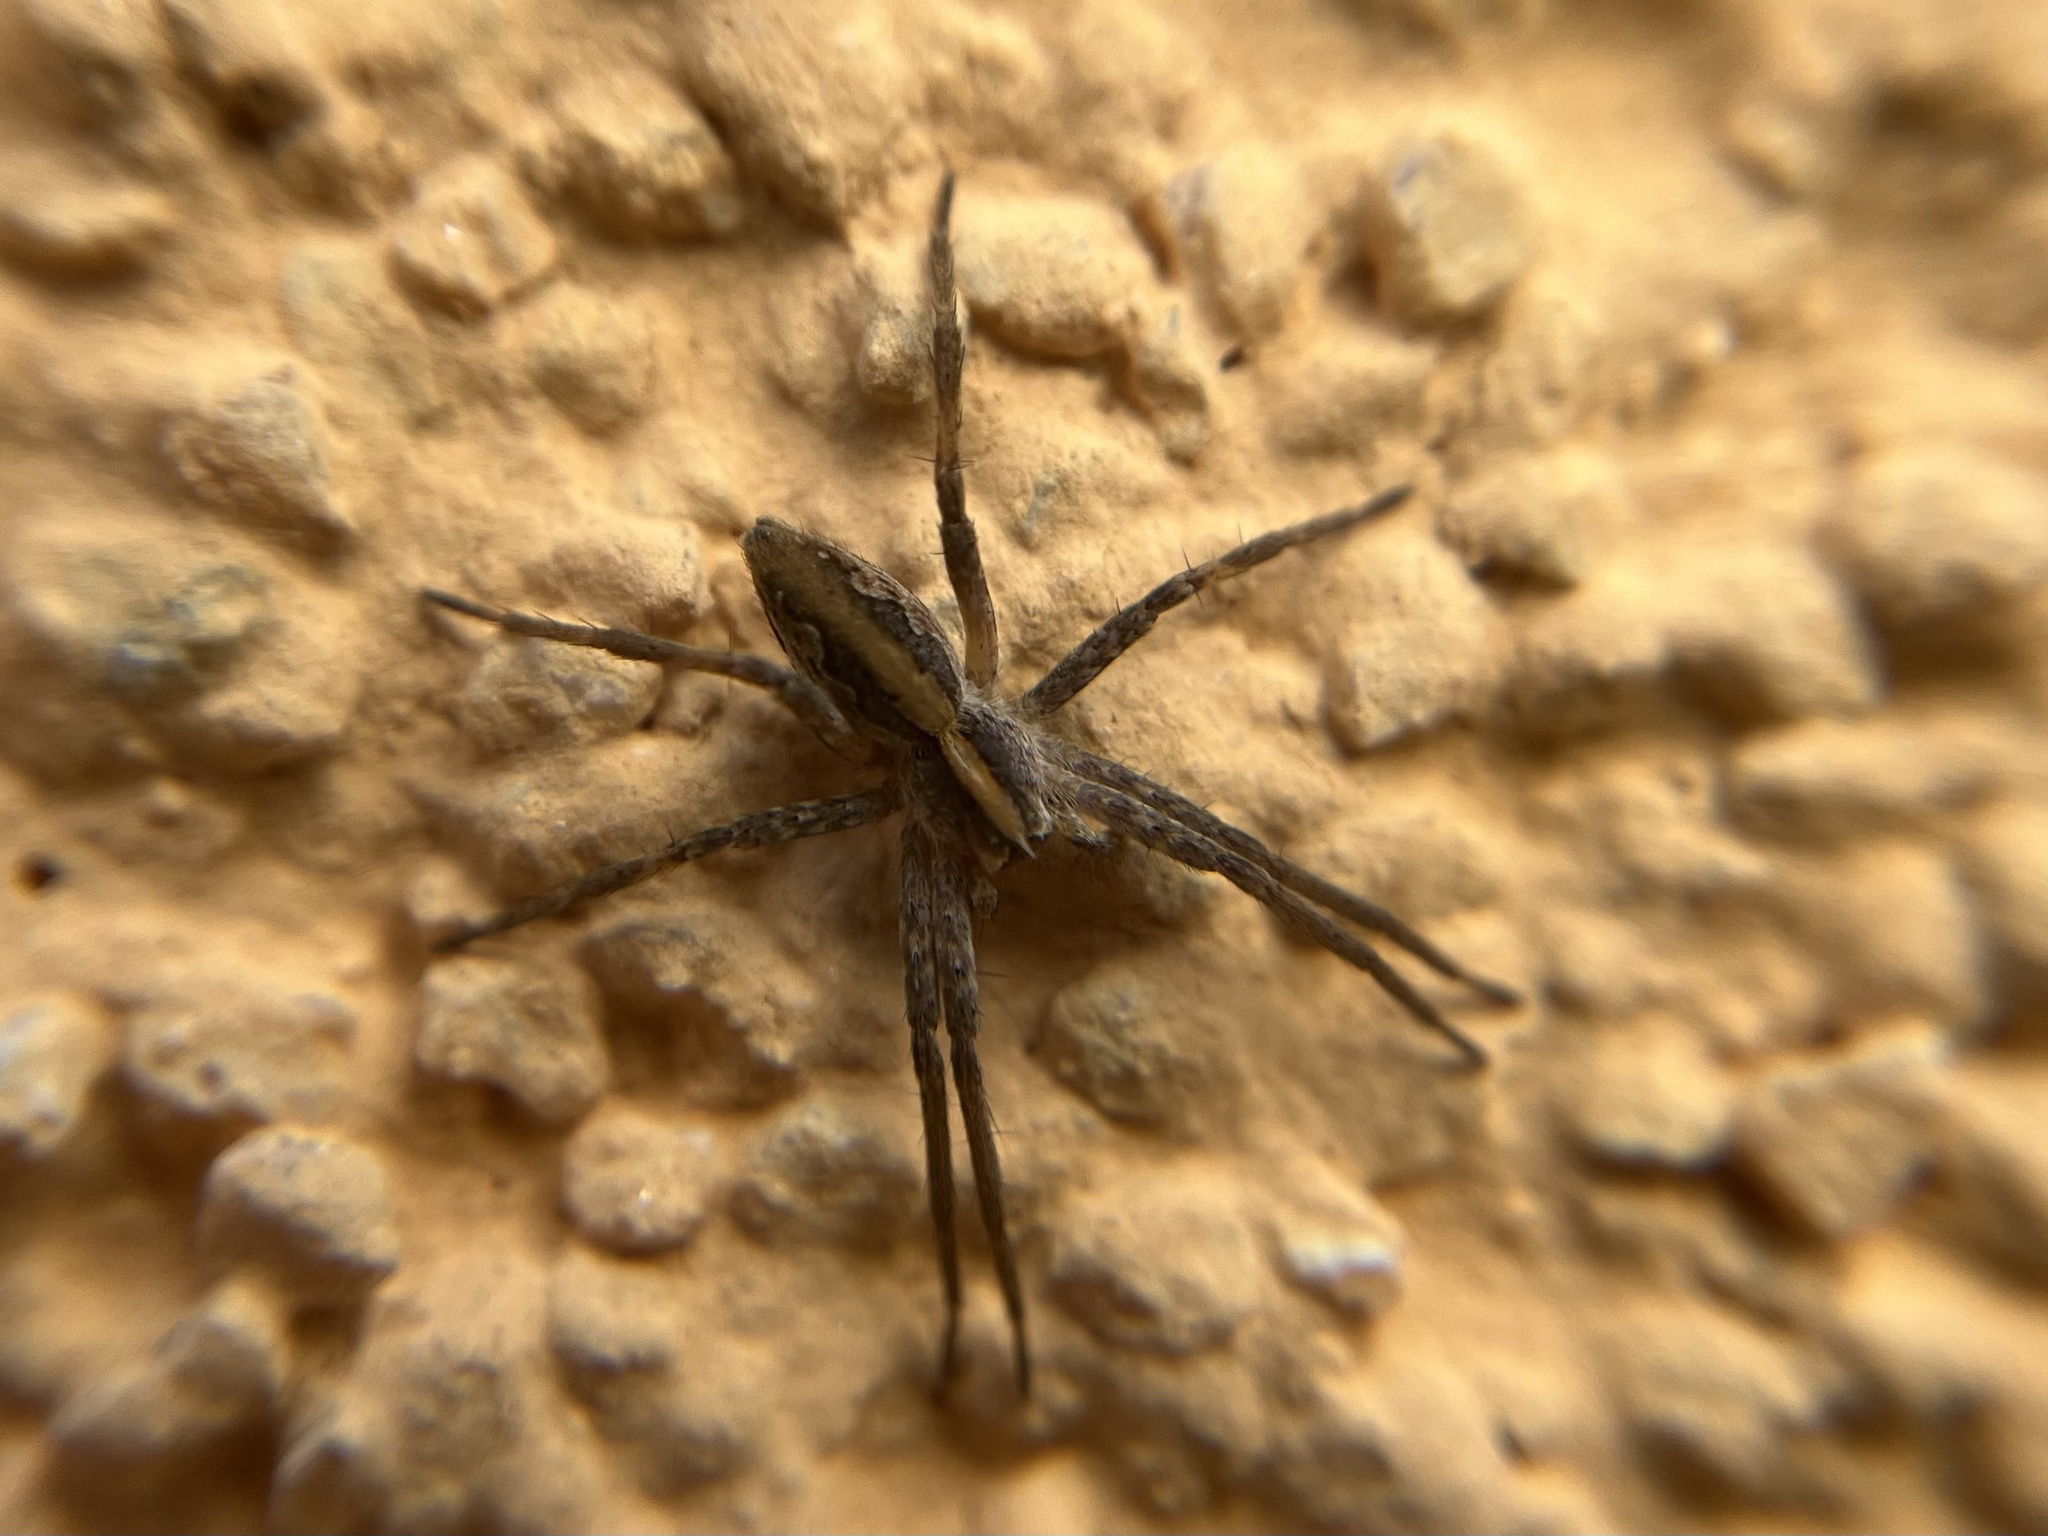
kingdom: Animalia
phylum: Arthropoda
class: Arachnida
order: Araneae
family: Pisauridae
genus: Pisaura
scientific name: Pisaura mirabilis
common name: Tent spider
